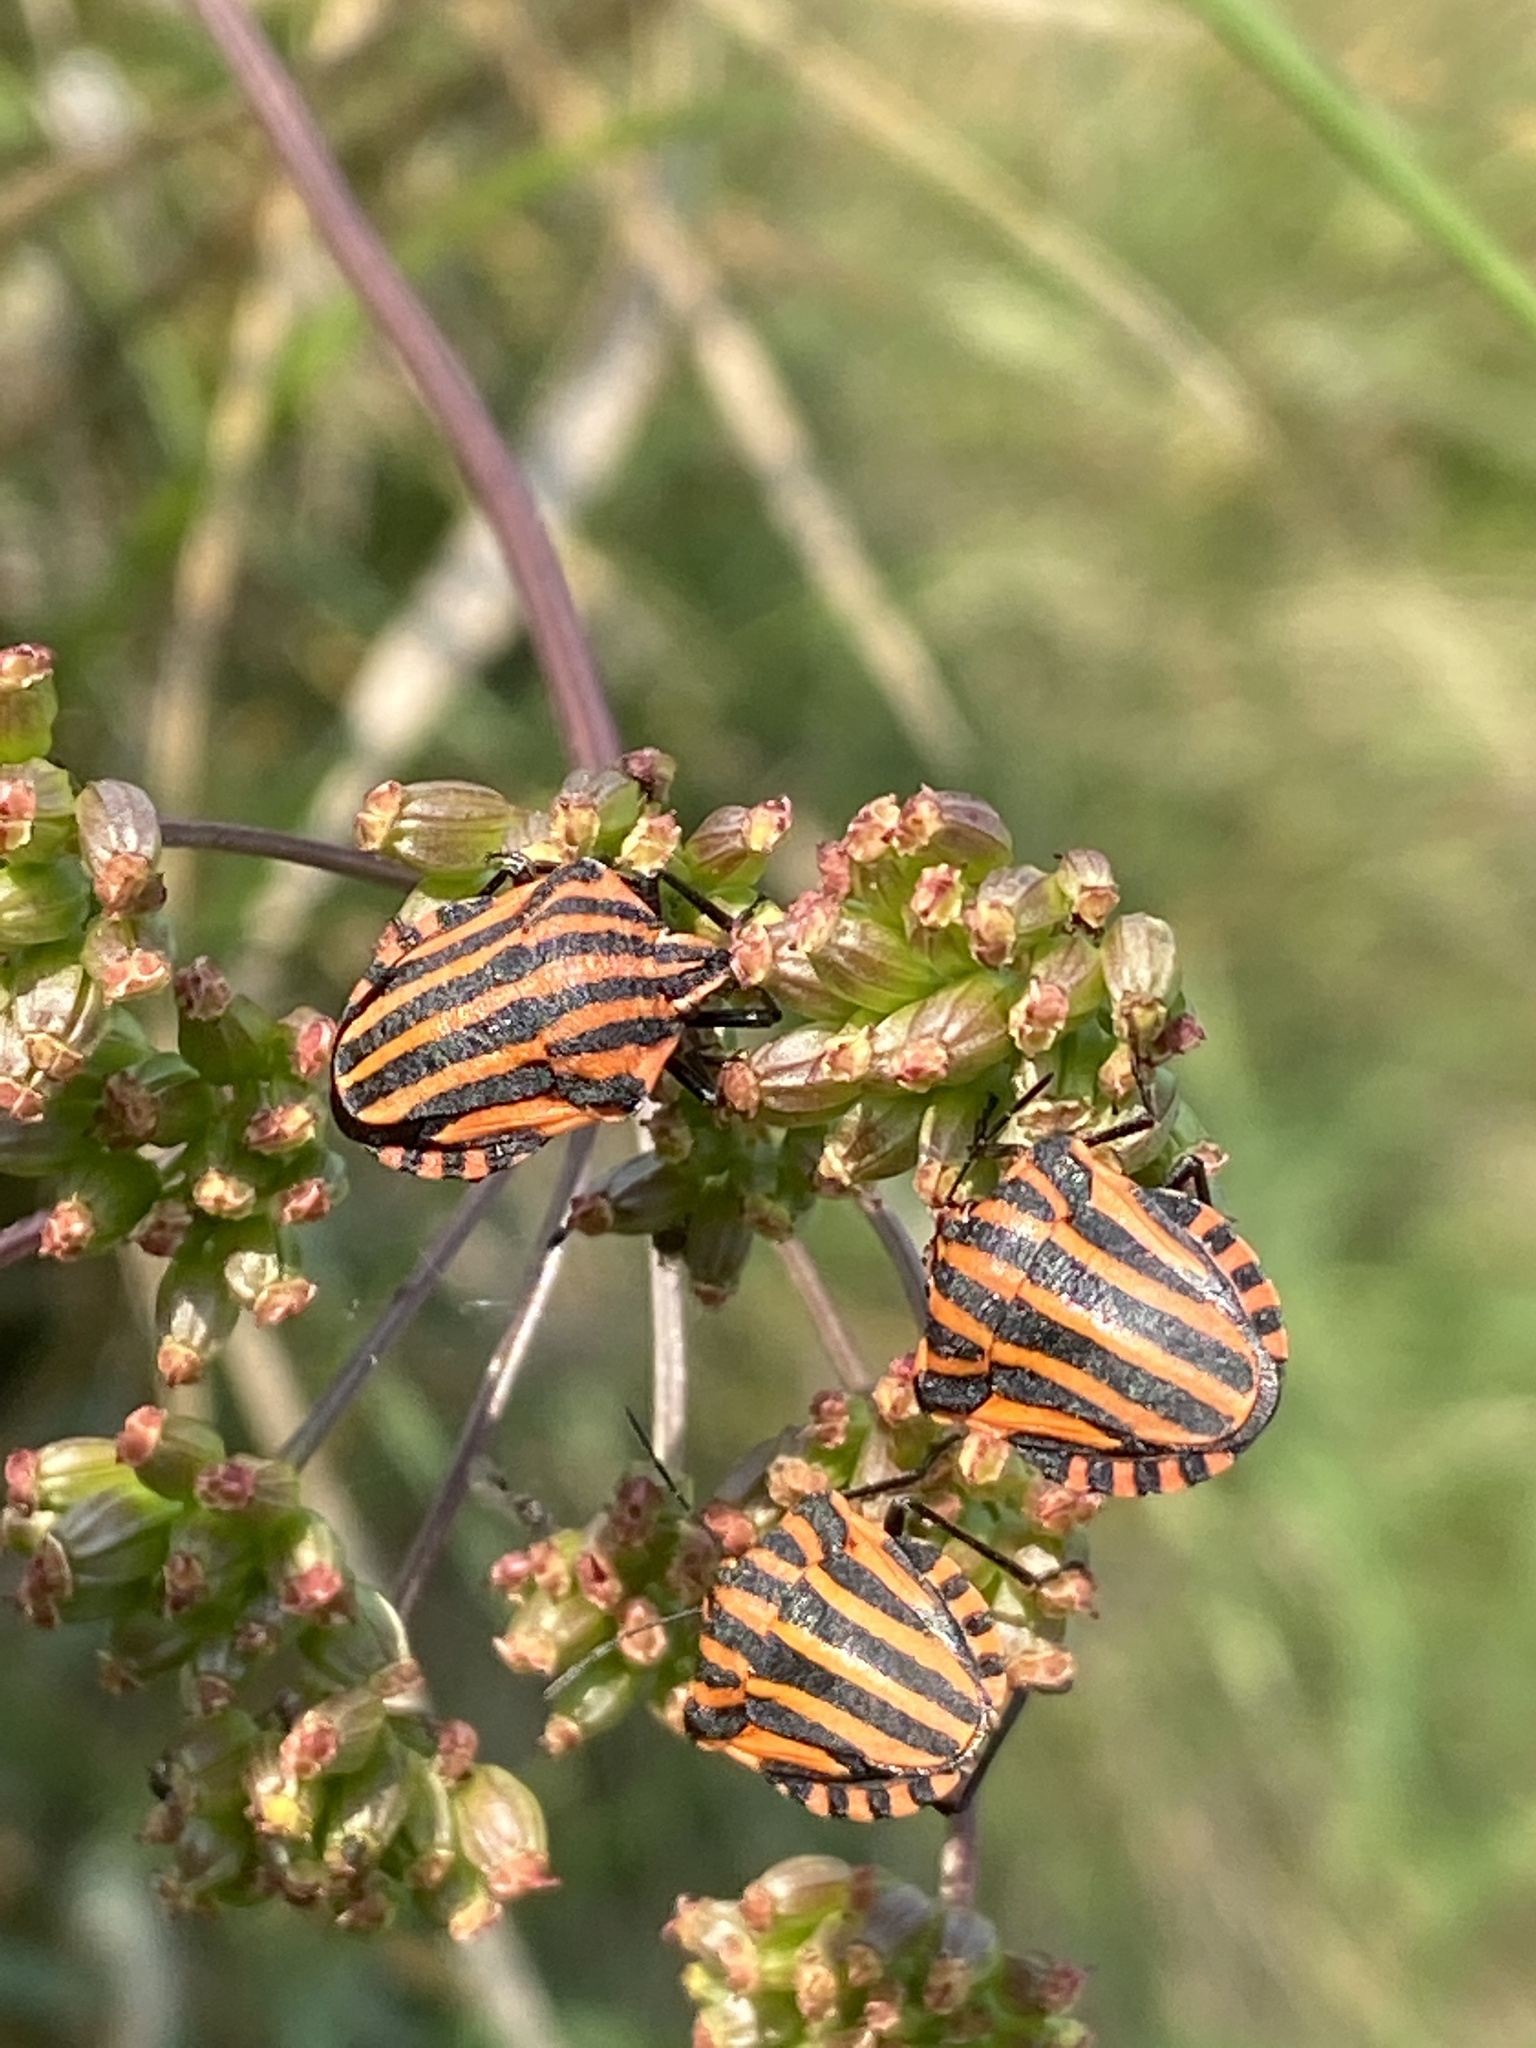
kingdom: Animalia
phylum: Arthropoda
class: Insecta
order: Hemiptera
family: Pentatomidae
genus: Graphosoma
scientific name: Graphosoma italicum
